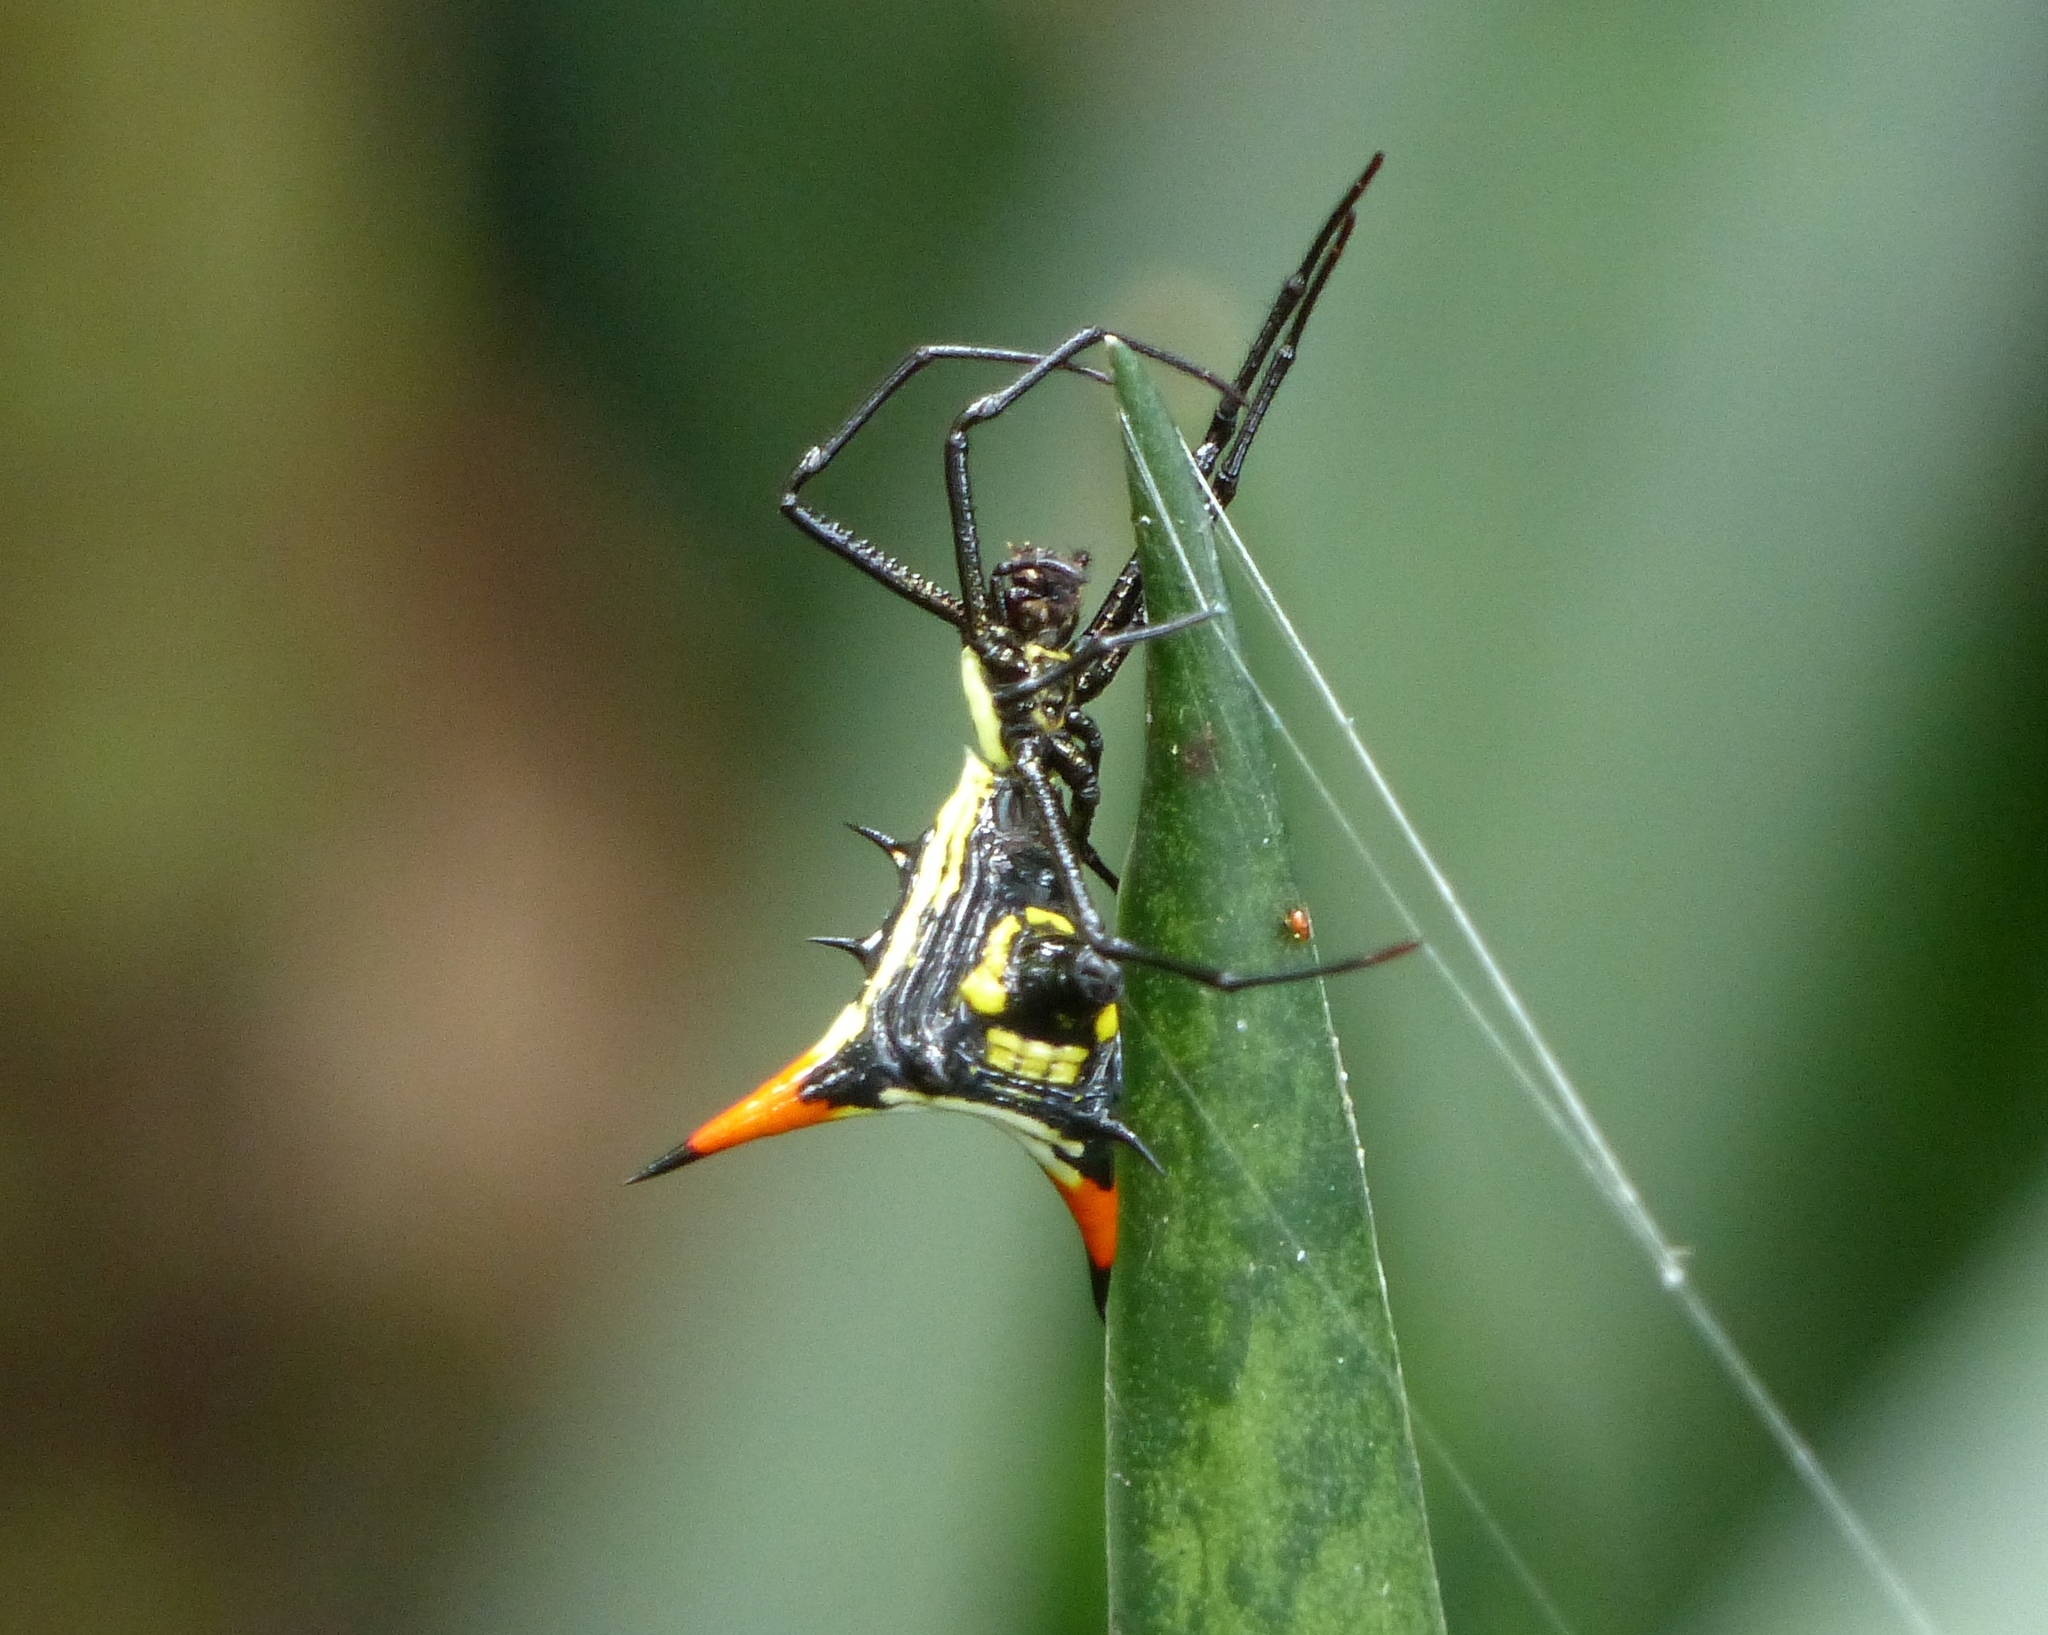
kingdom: Animalia
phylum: Arthropoda
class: Arachnida
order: Araneae
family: Araneidae
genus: Micrathena
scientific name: Micrathena schreibersi
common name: Orb weavers
